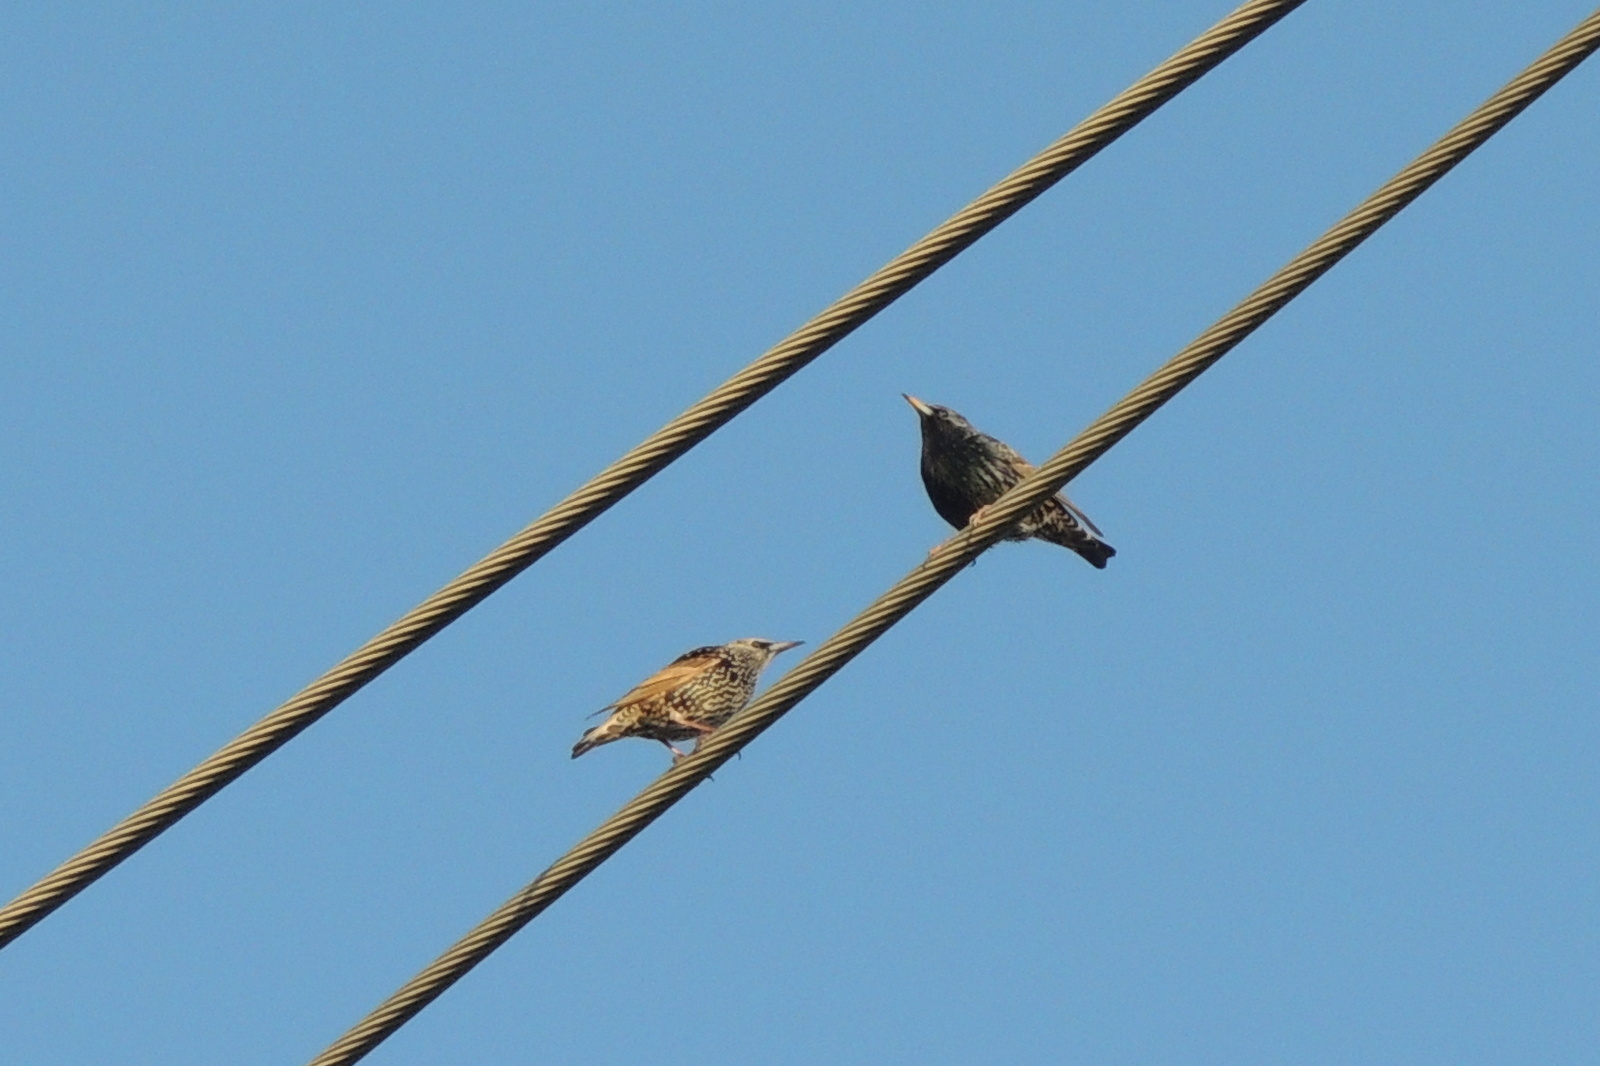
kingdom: Animalia
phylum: Chordata
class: Aves
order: Passeriformes
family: Sturnidae
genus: Sturnus
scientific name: Sturnus vulgaris
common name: Common starling
